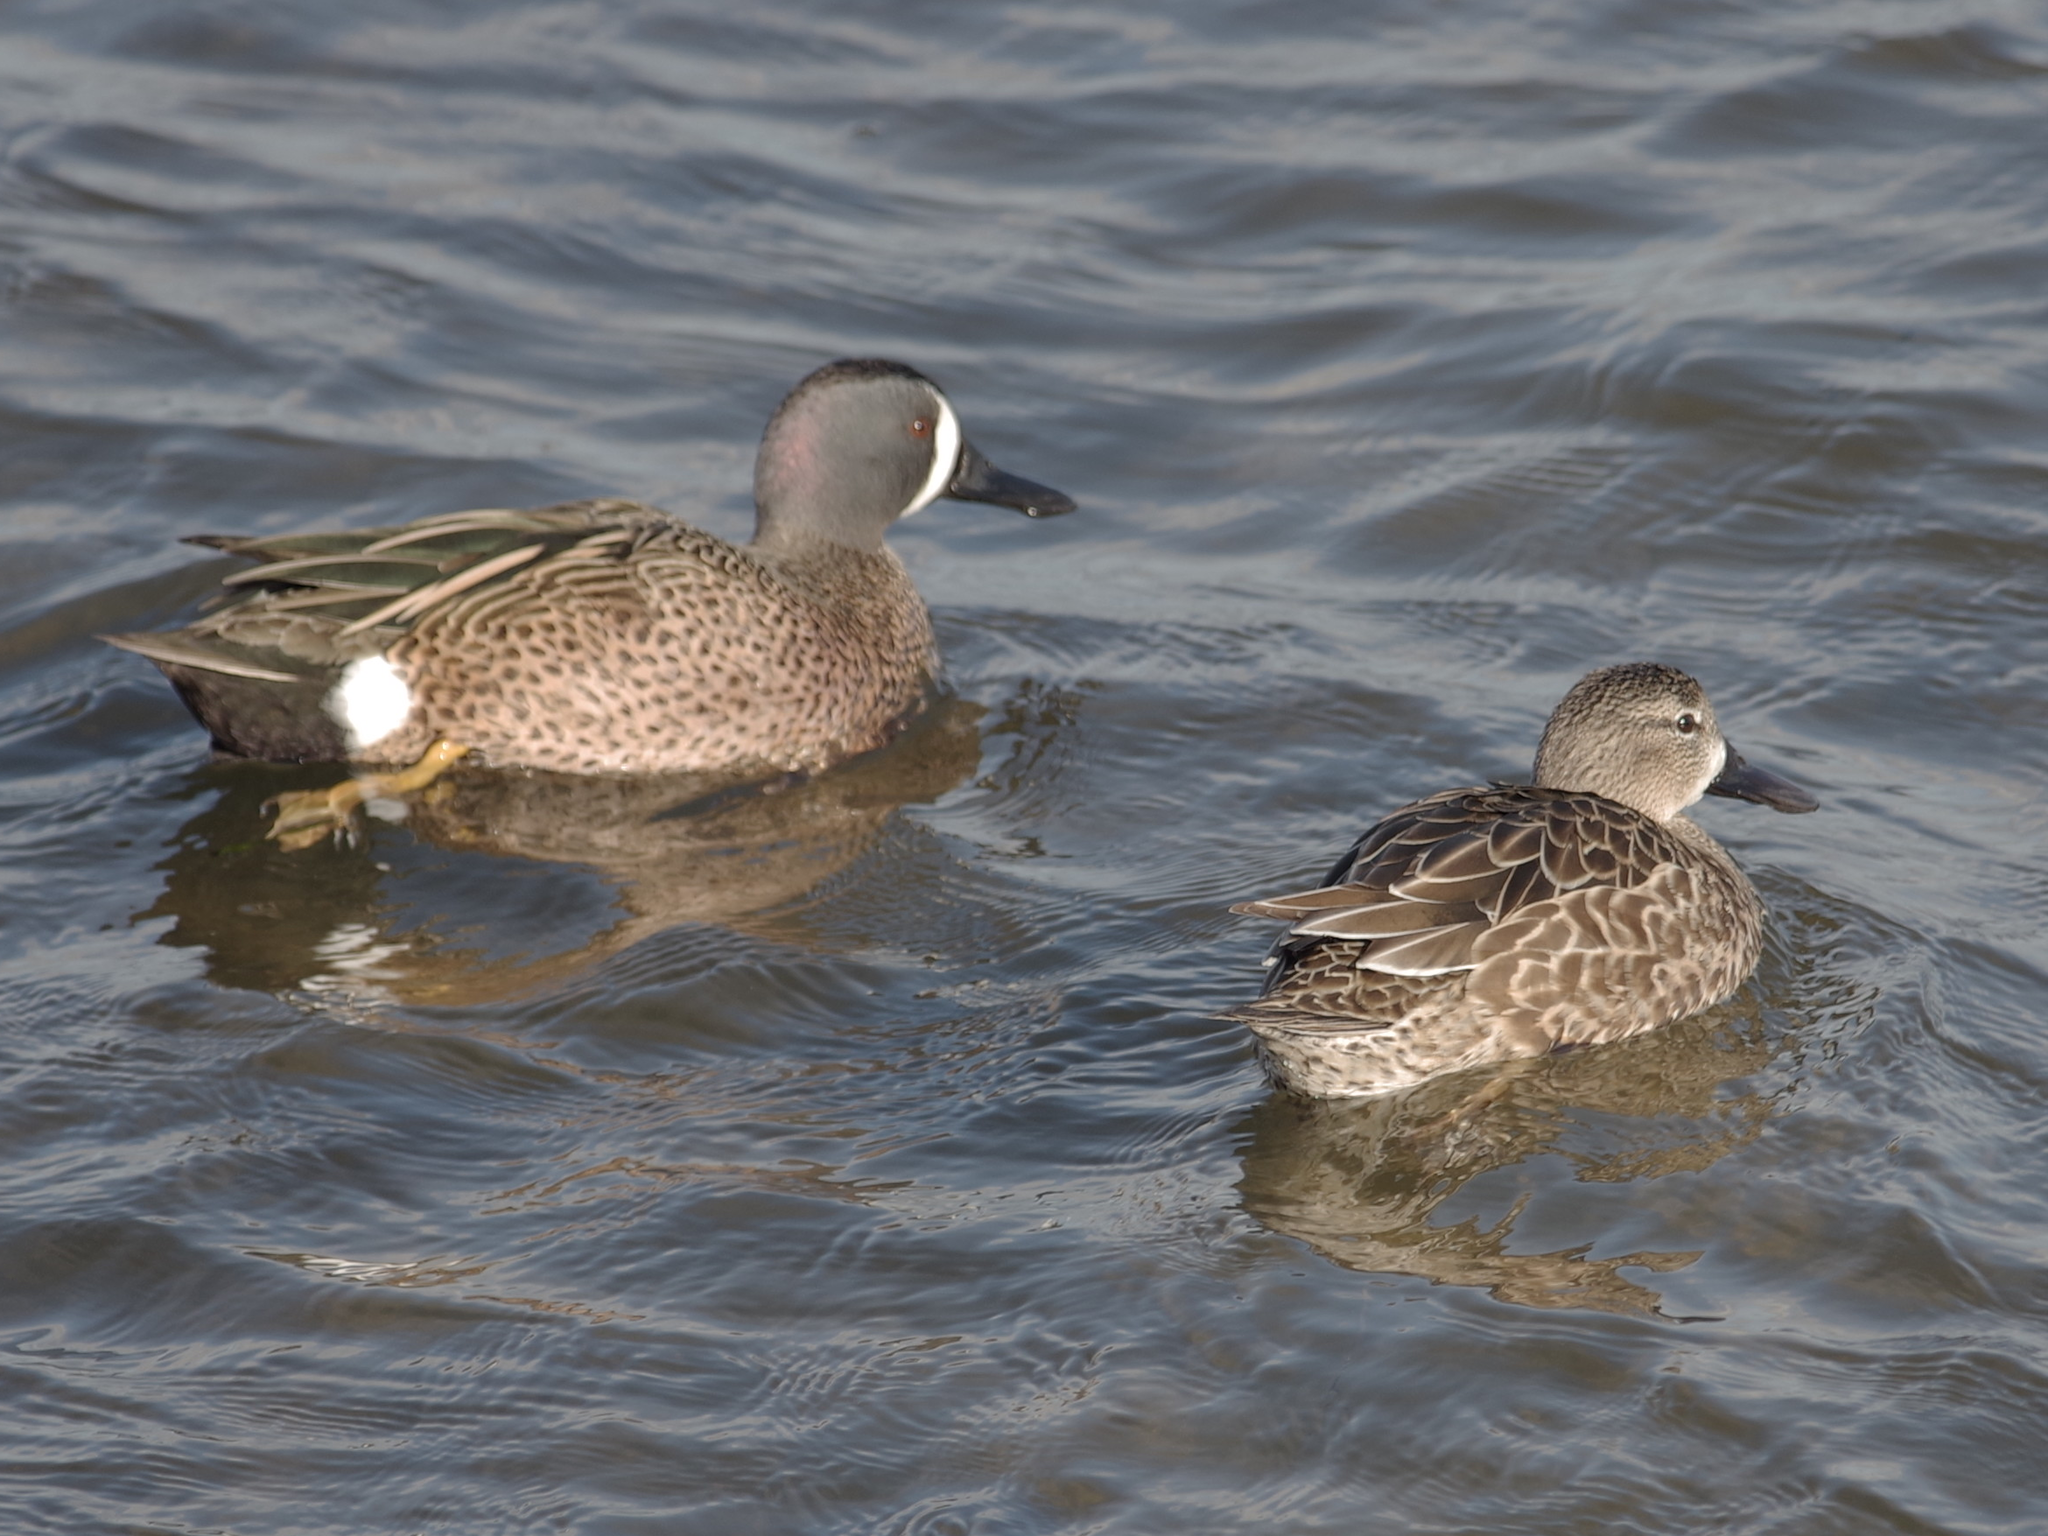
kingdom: Animalia
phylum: Chordata
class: Aves
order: Anseriformes
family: Anatidae
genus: Spatula
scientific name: Spatula discors
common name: Blue-winged teal
